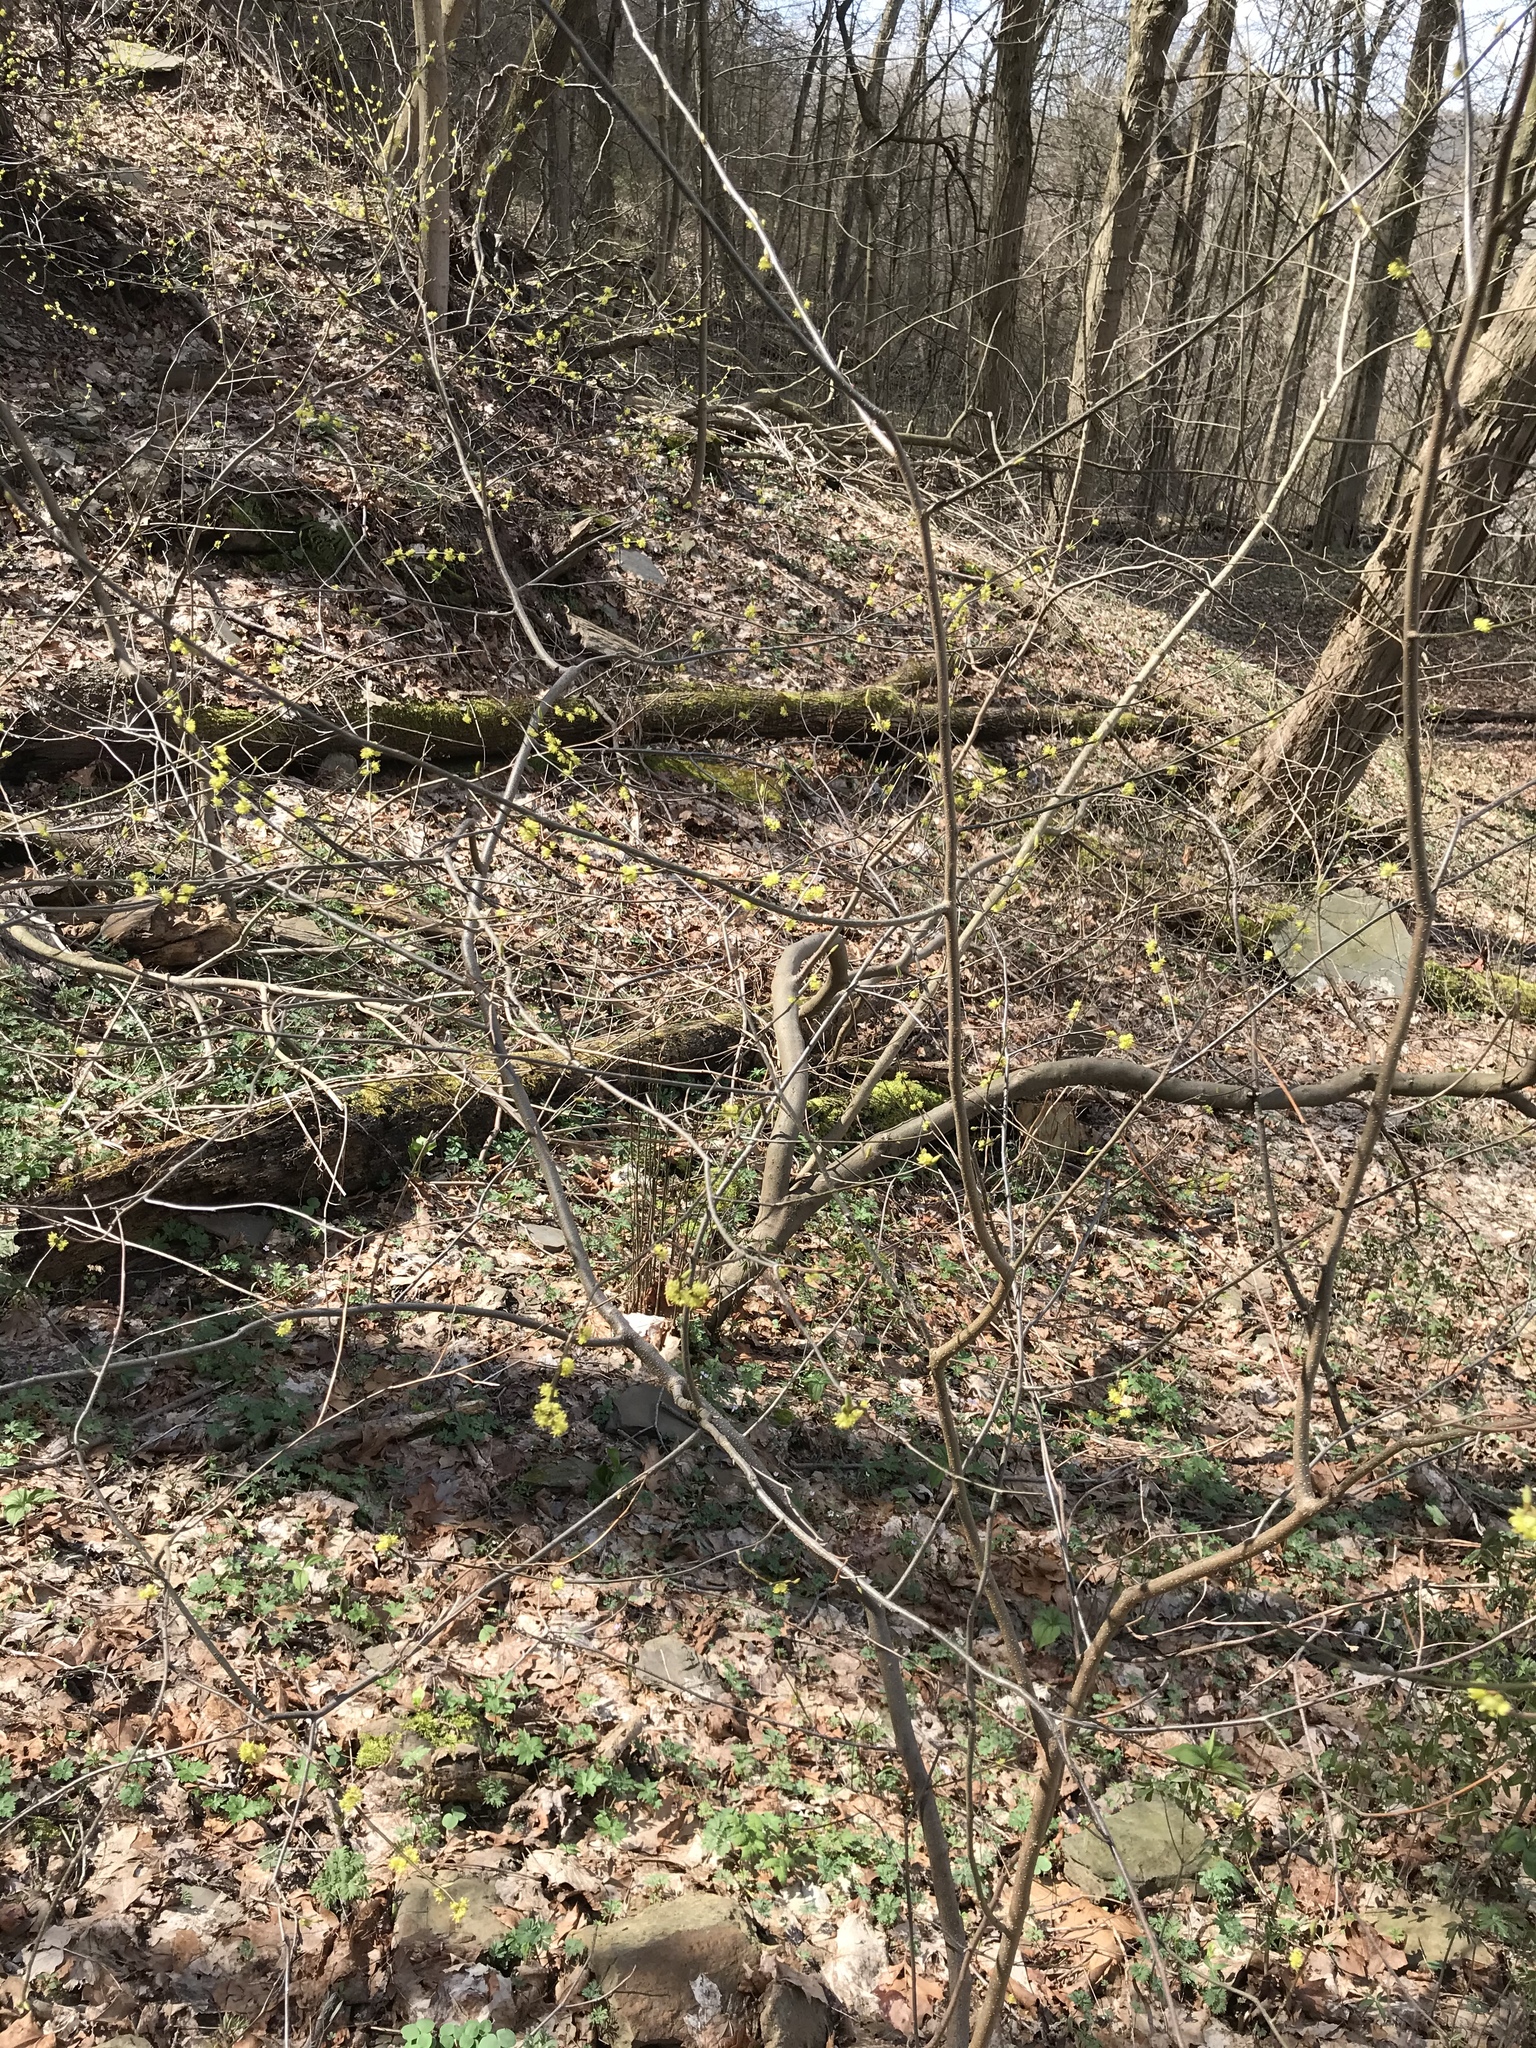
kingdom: Plantae
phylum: Tracheophyta
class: Magnoliopsida
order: Laurales
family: Lauraceae
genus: Lindera
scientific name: Lindera benzoin
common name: Spicebush
